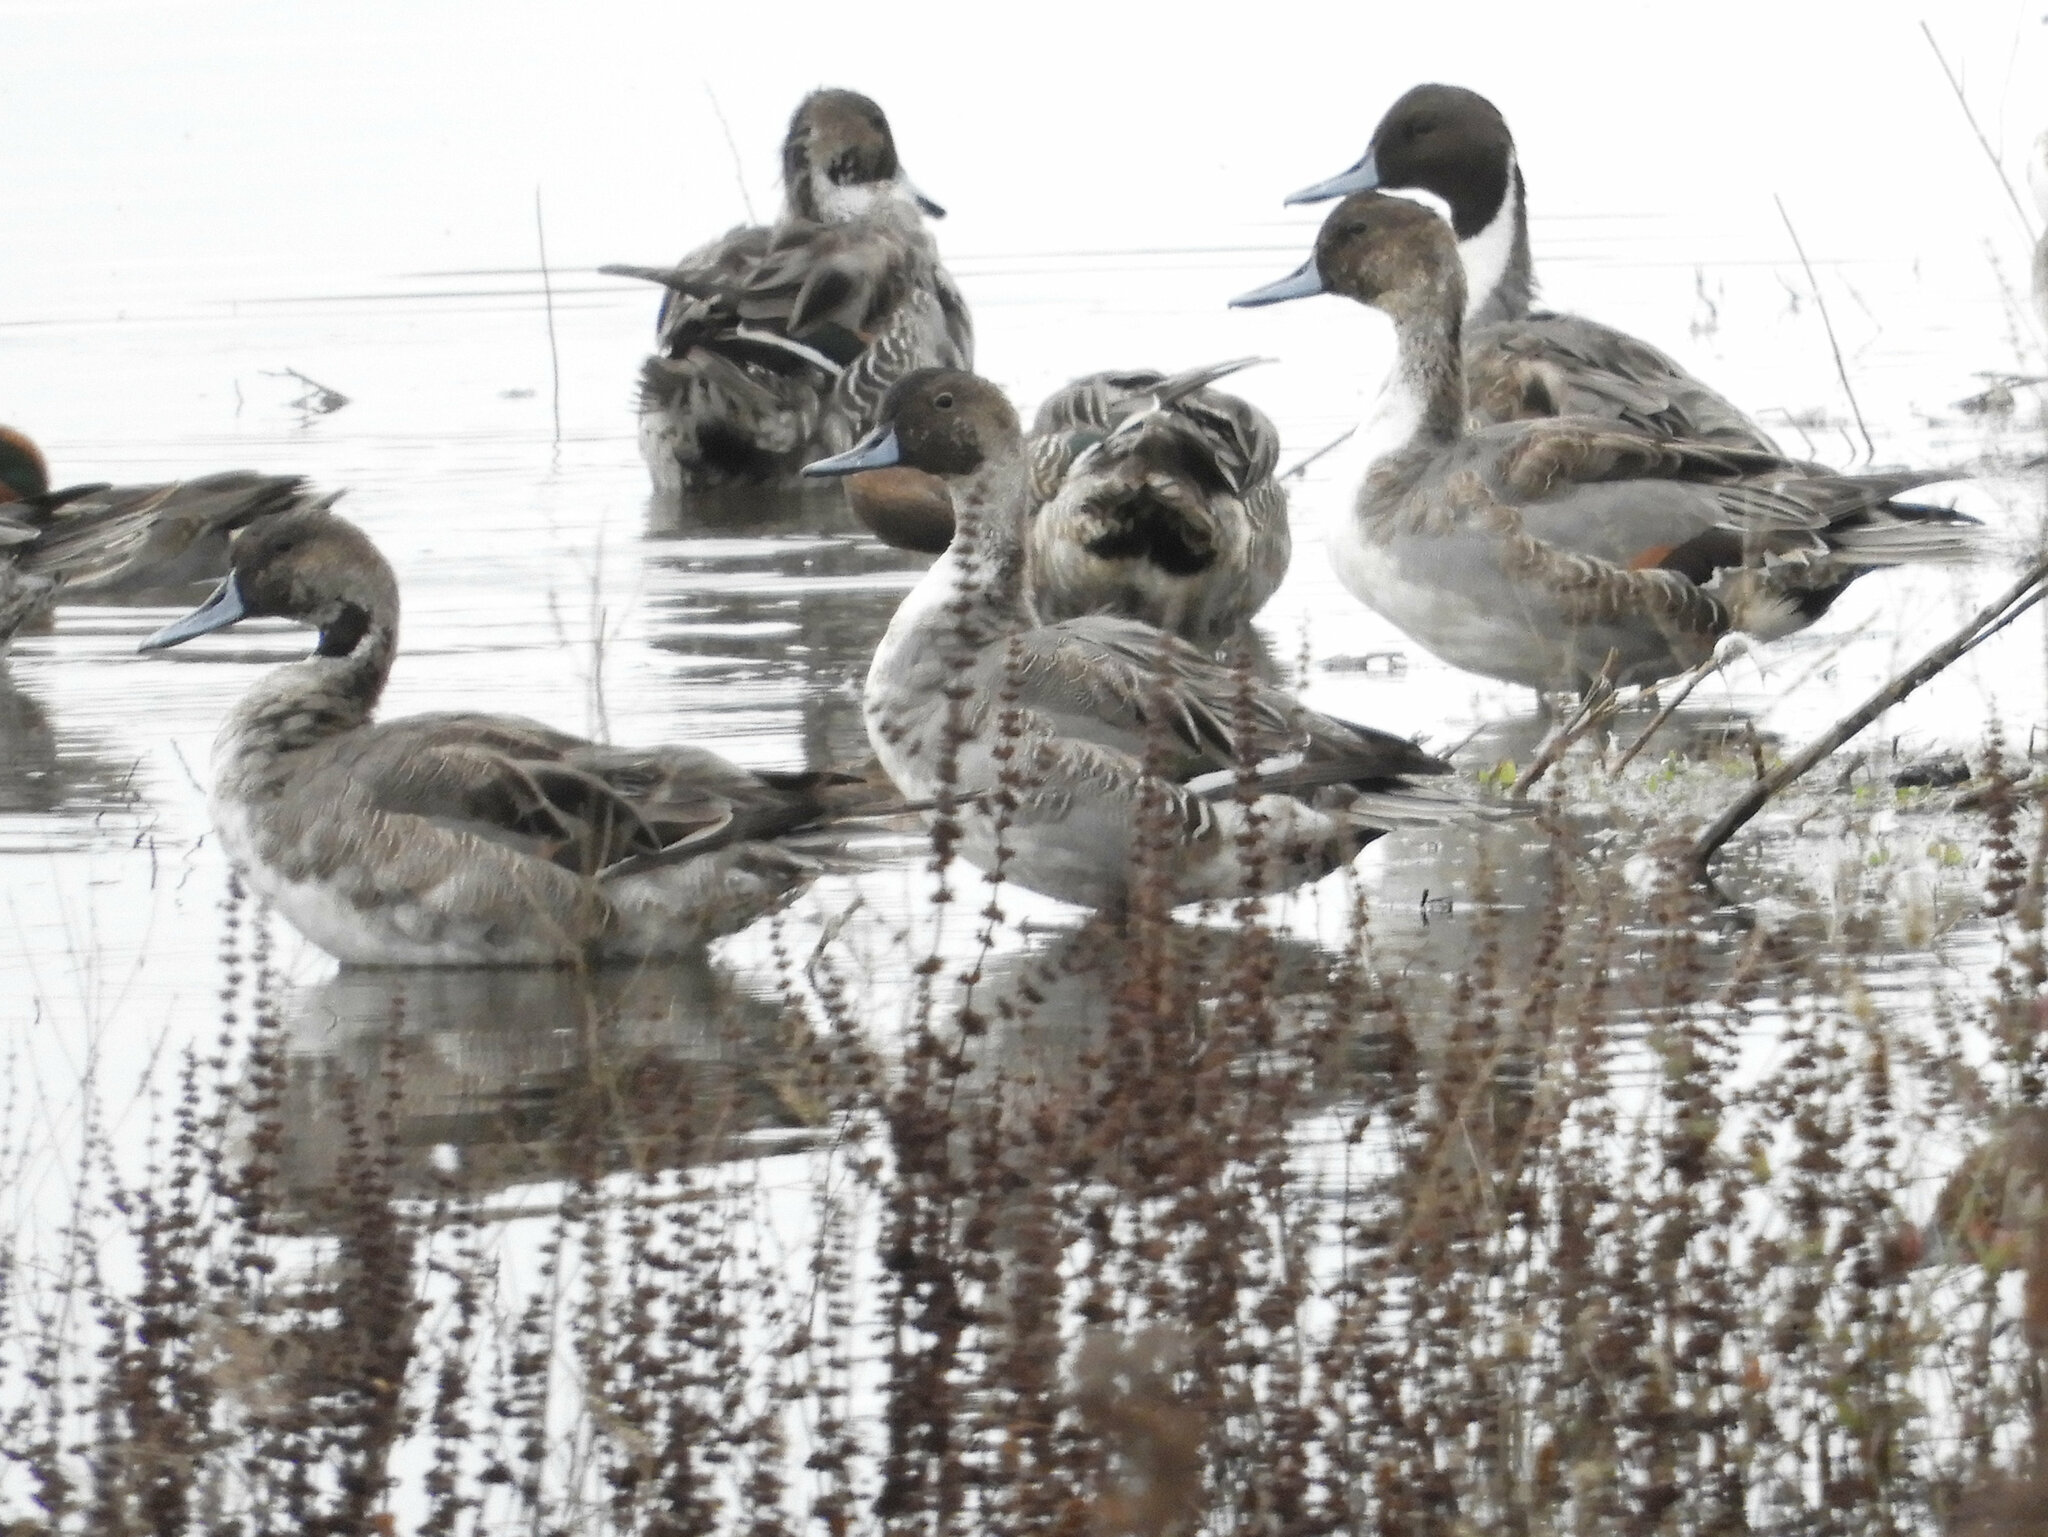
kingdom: Animalia
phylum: Chordata
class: Aves
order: Anseriformes
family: Anatidae
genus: Anas
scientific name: Anas acuta
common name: Northern pintail
